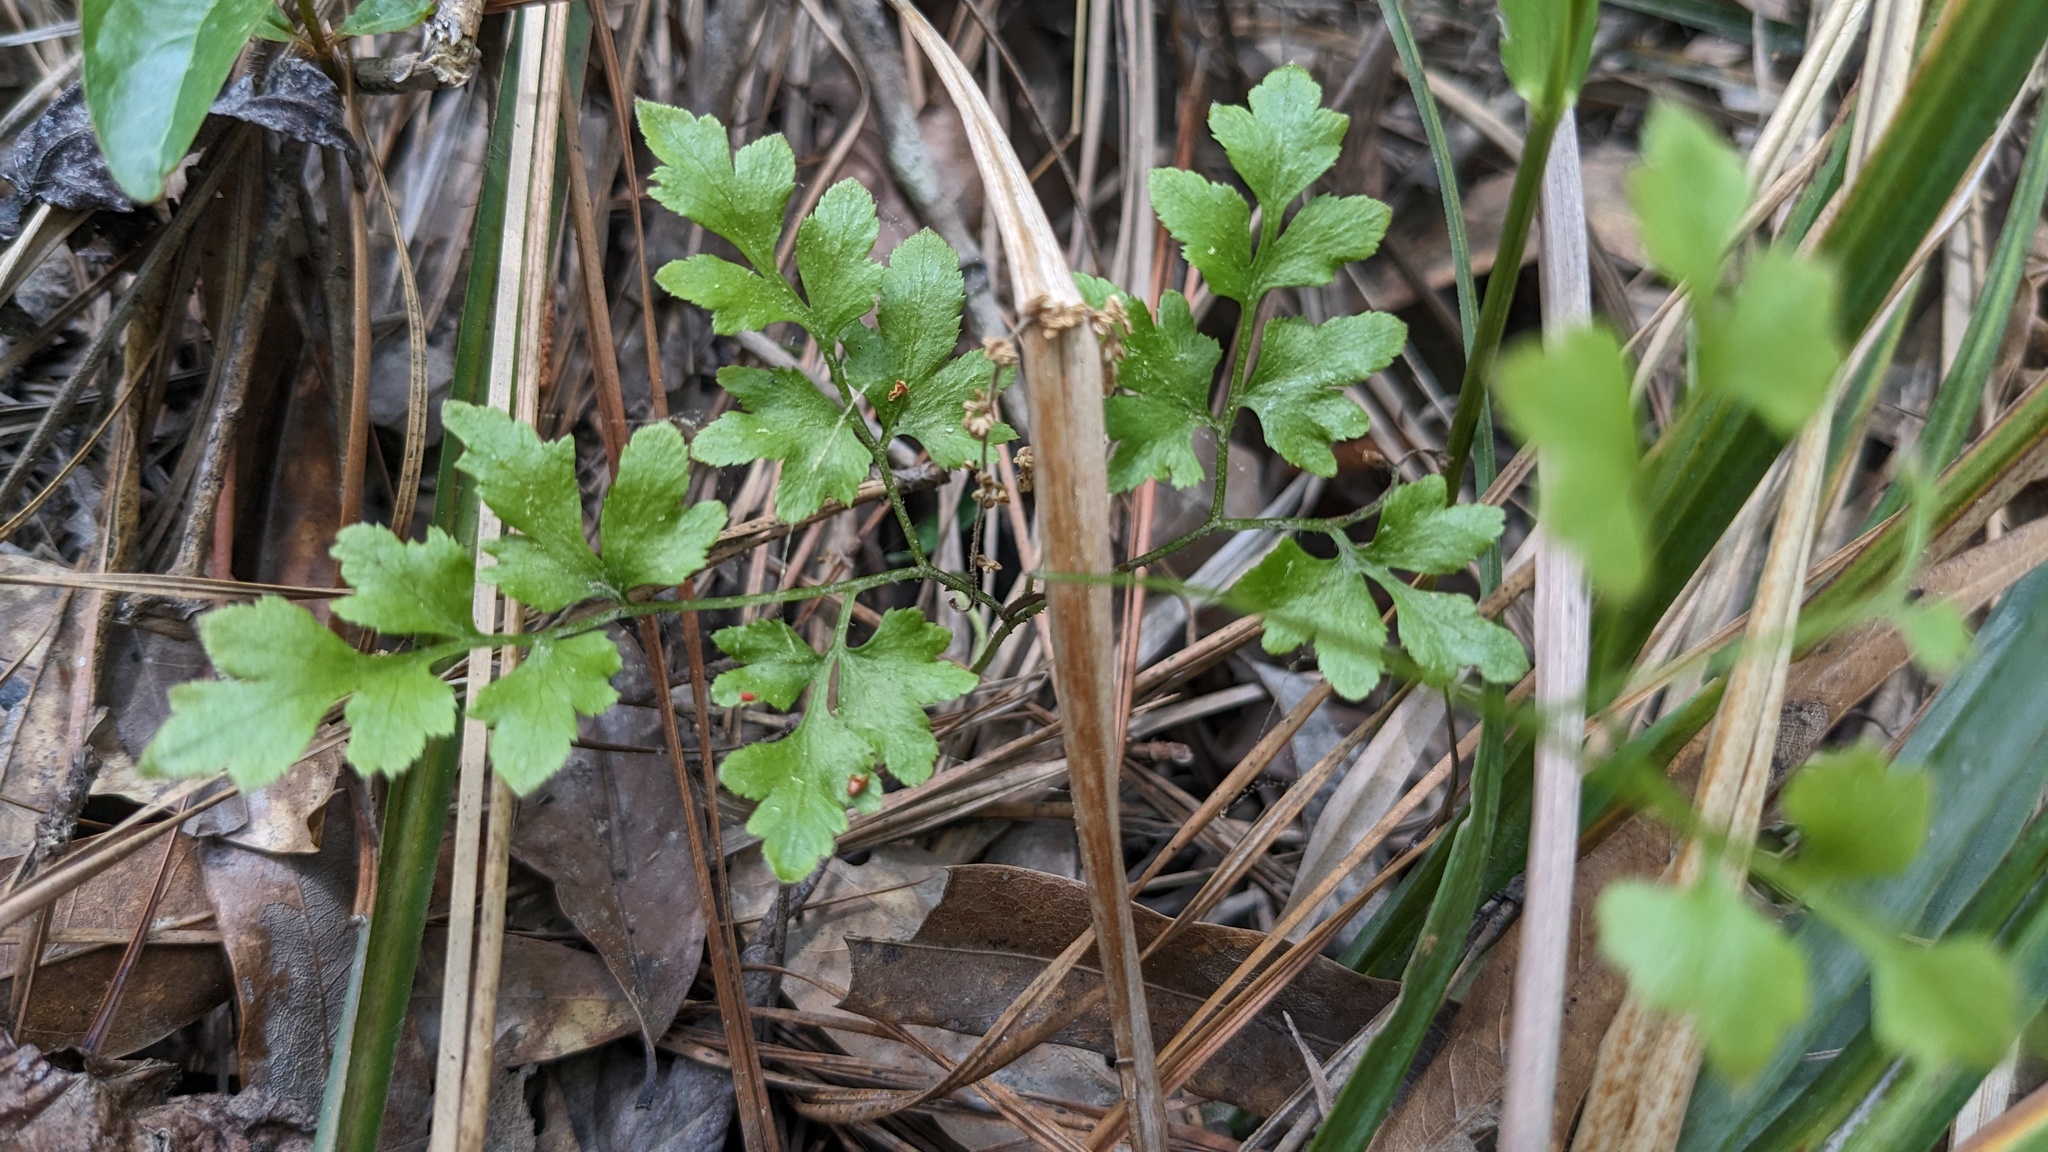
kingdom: Plantae
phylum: Tracheophyta
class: Polypodiopsida
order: Schizaeales
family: Lygodiaceae
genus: Lygodium
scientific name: Lygodium japonicum
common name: Japanese climbing fern
